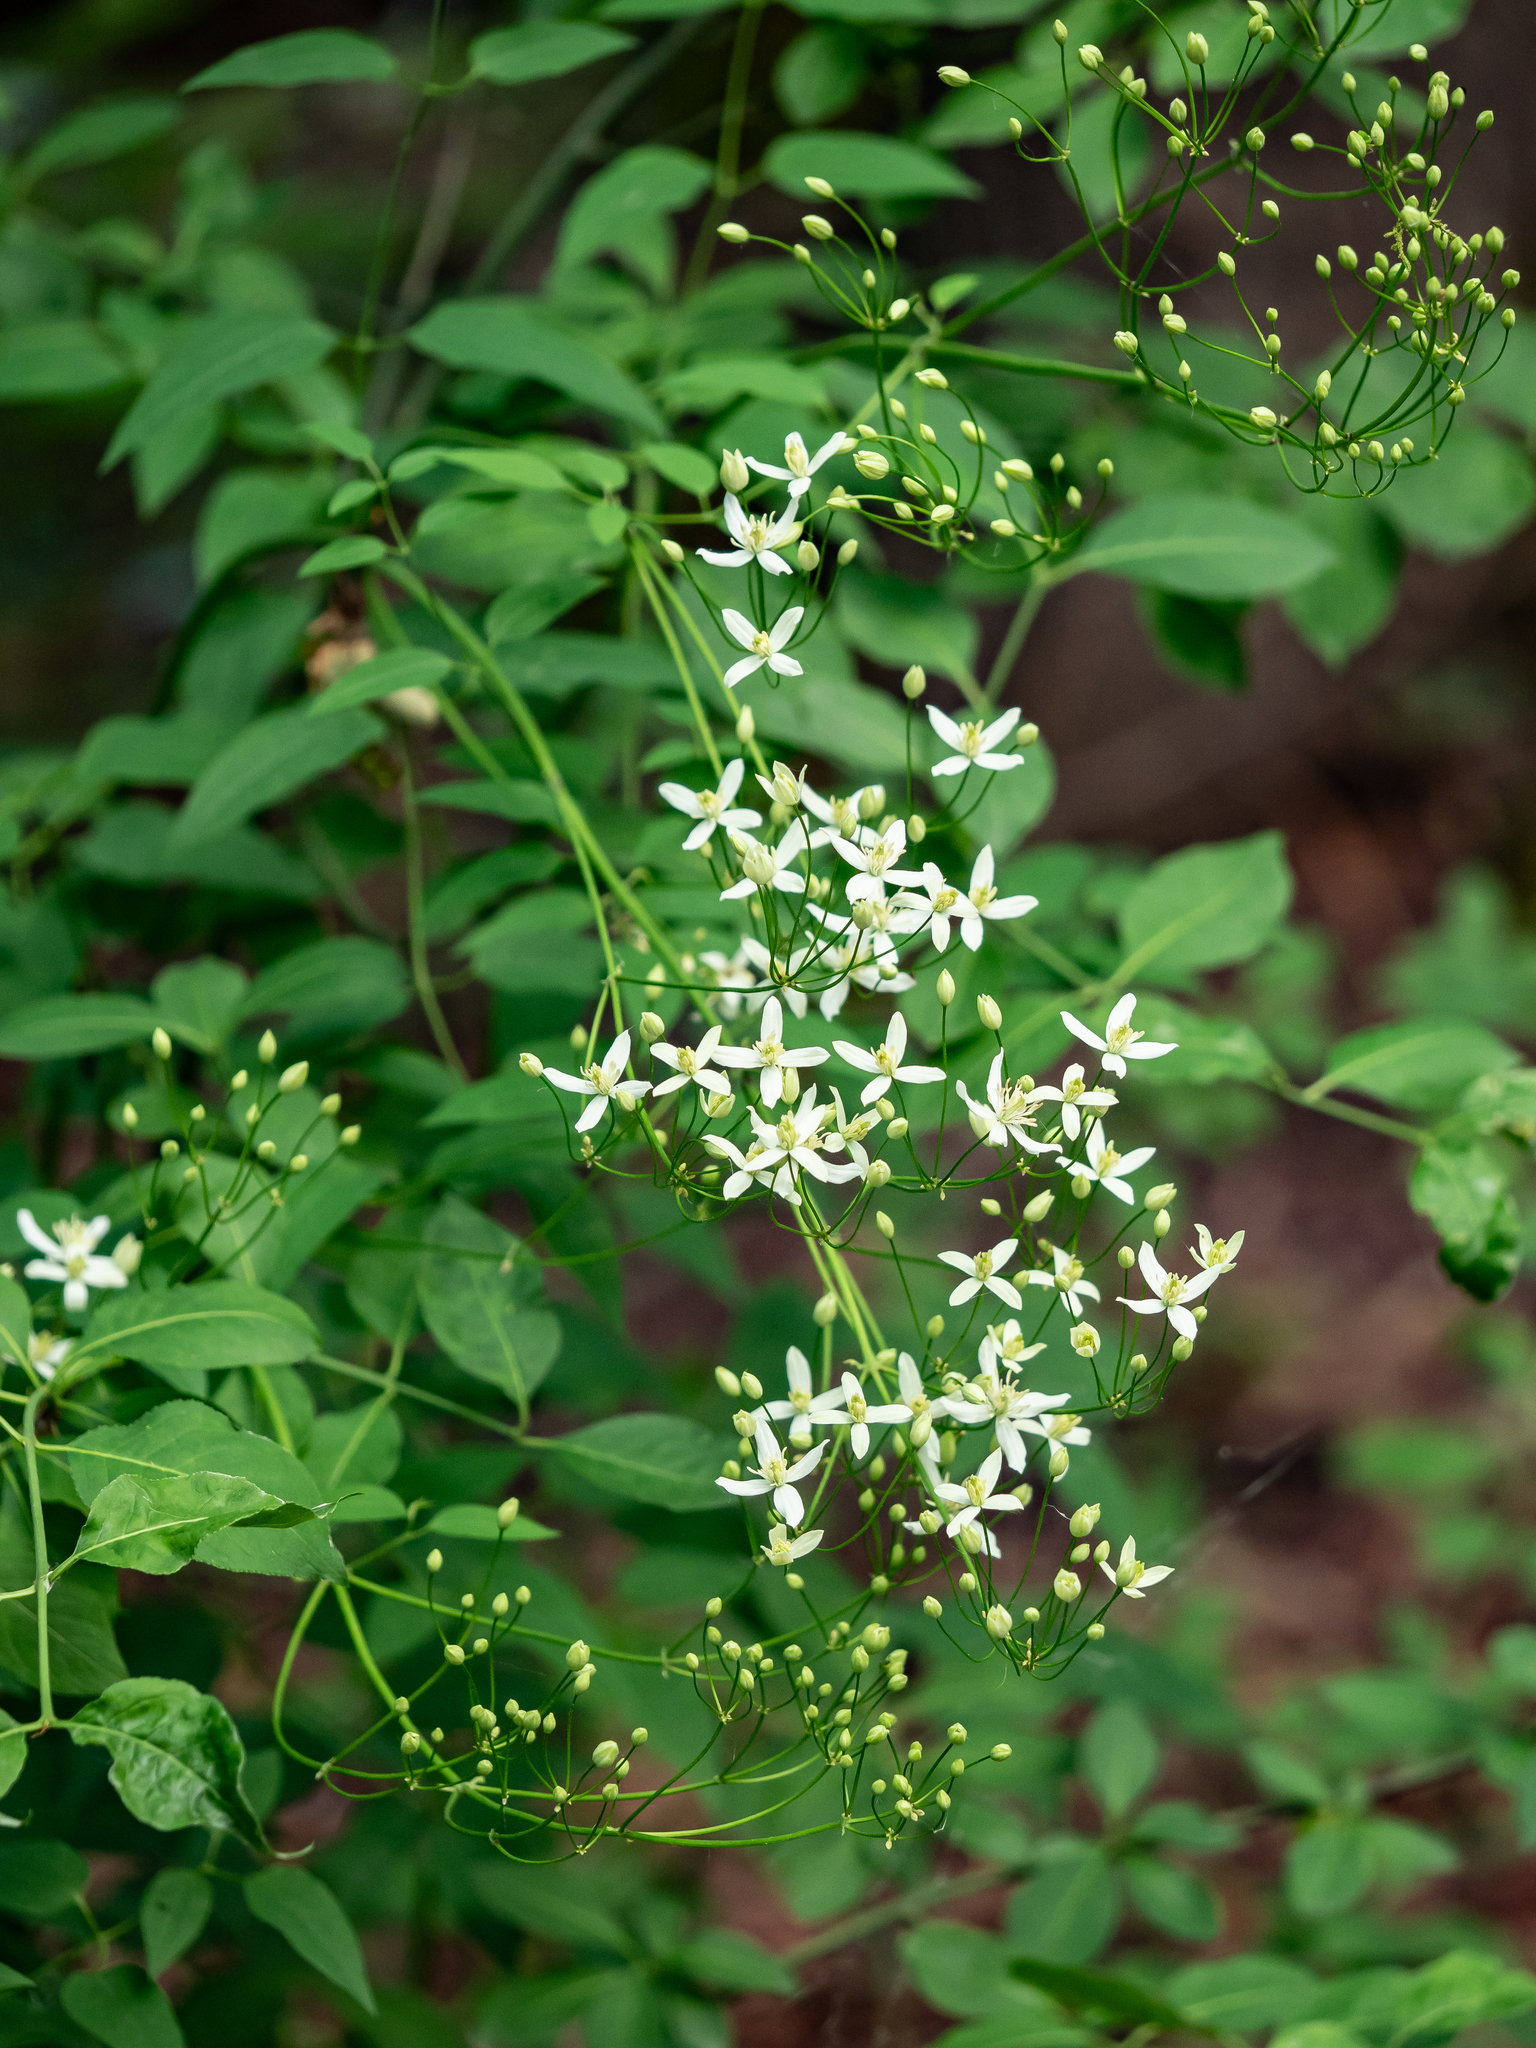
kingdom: Plantae
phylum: Tracheophyta
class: Magnoliopsida
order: Ranunculales
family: Ranunculaceae
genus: Clematis
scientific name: Clematis recta
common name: Ground clematis
